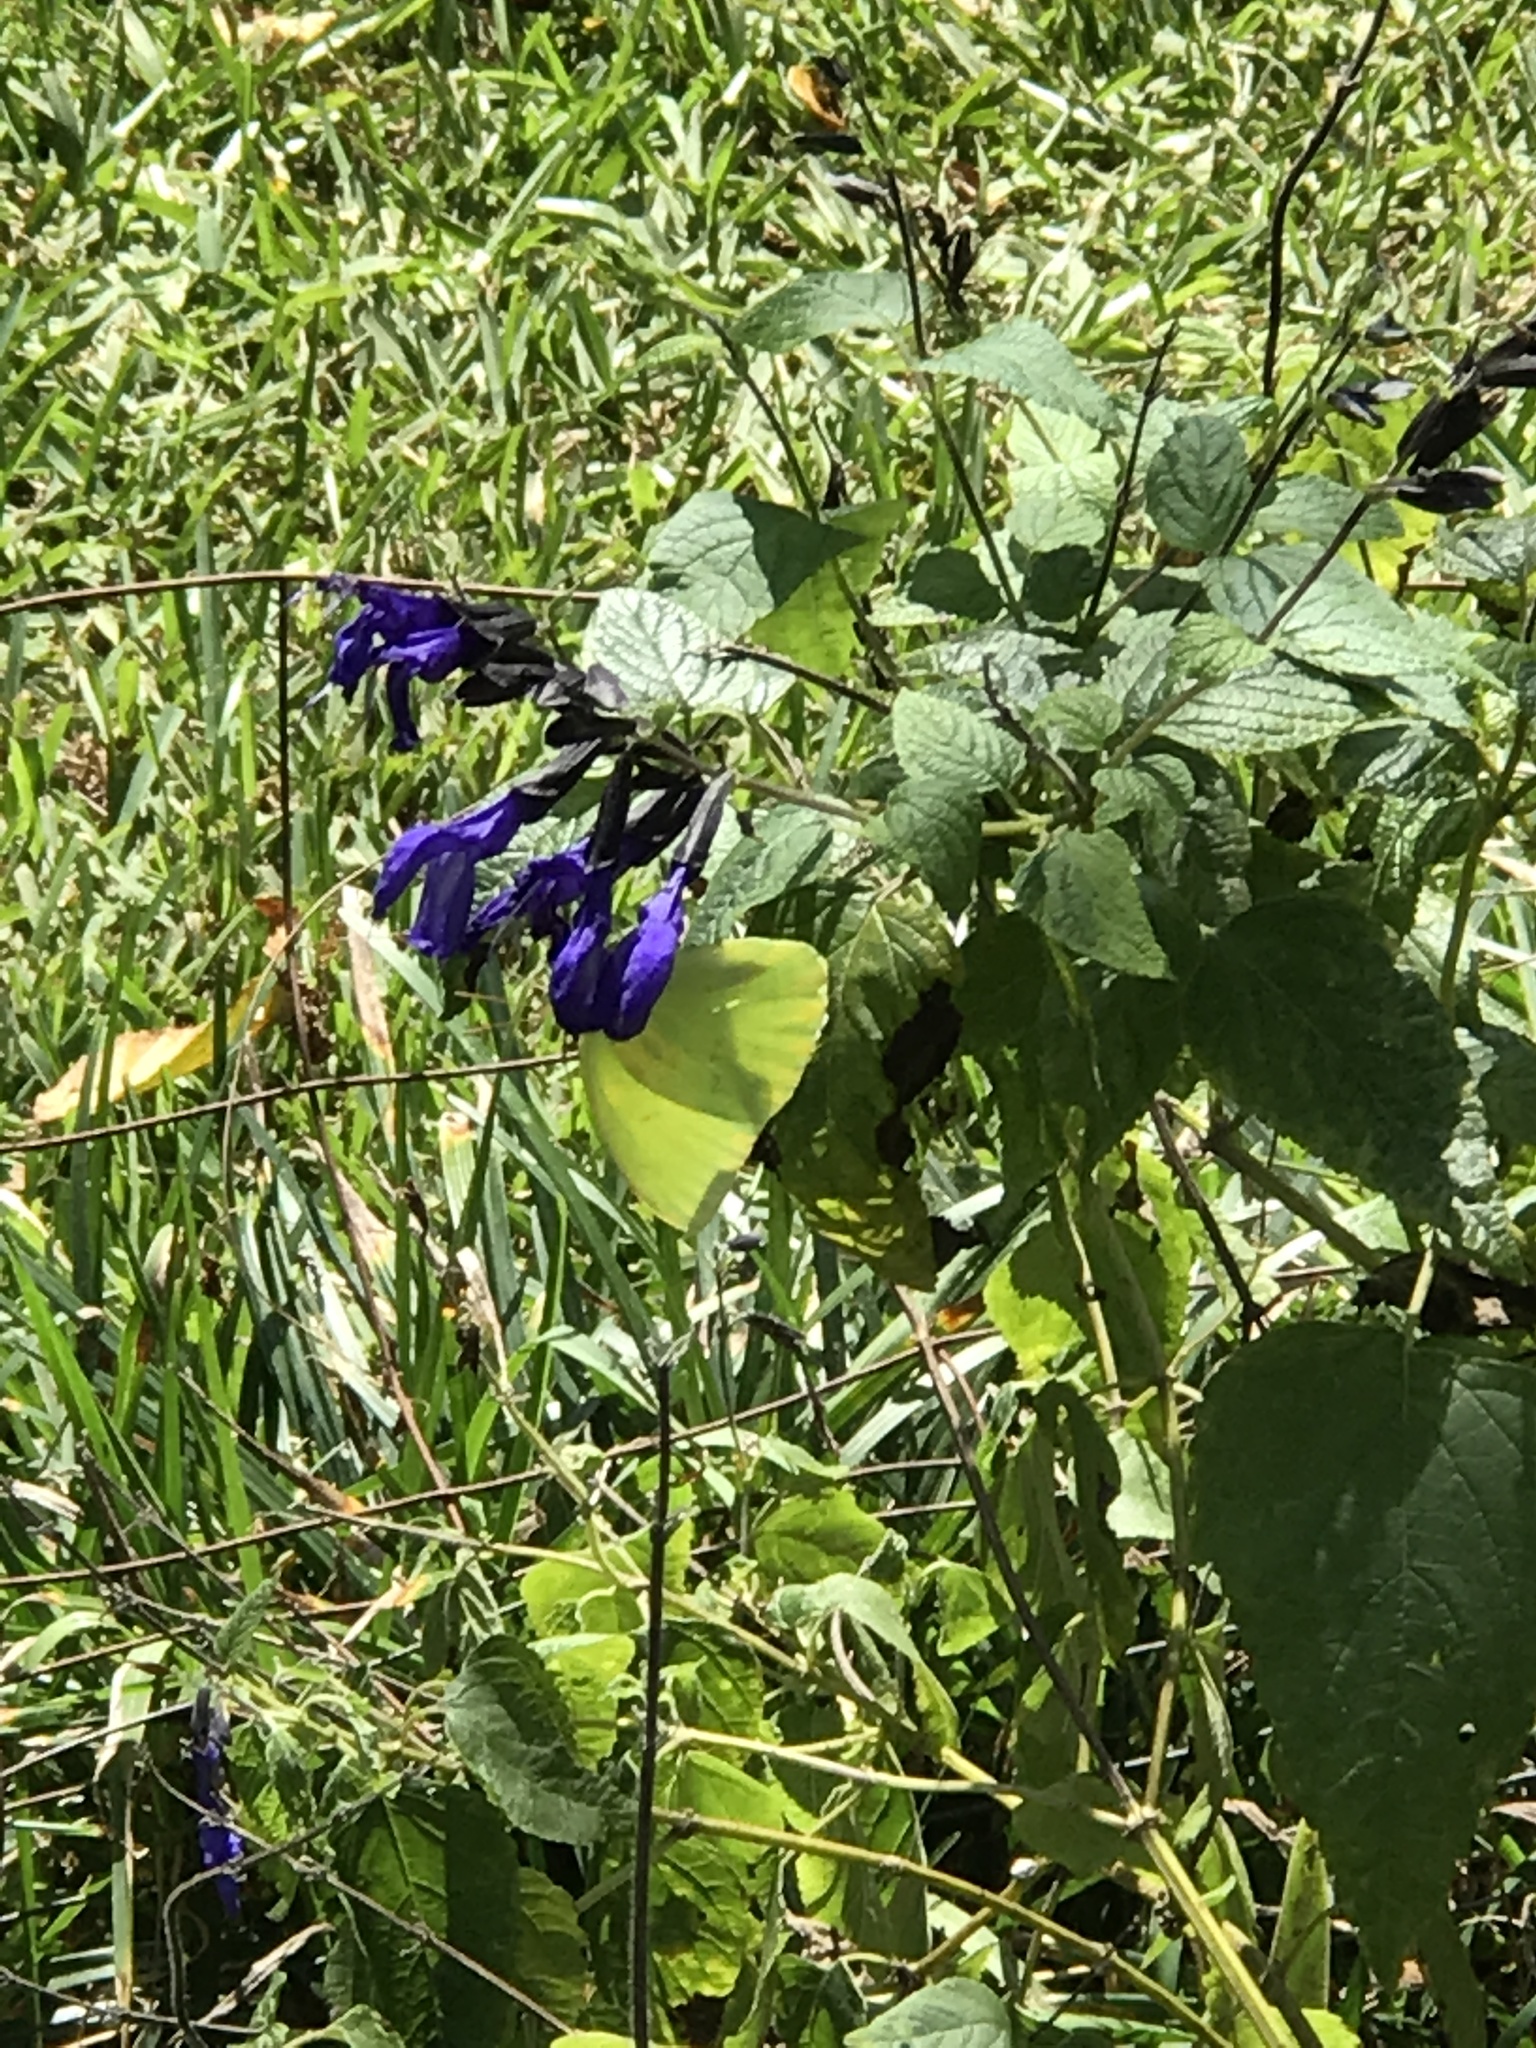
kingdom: Animalia
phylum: Arthropoda
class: Insecta
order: Lepidoptera
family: Pieridae
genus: Phoebis
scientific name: Phoebis sennae
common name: Cloudless sulphur
